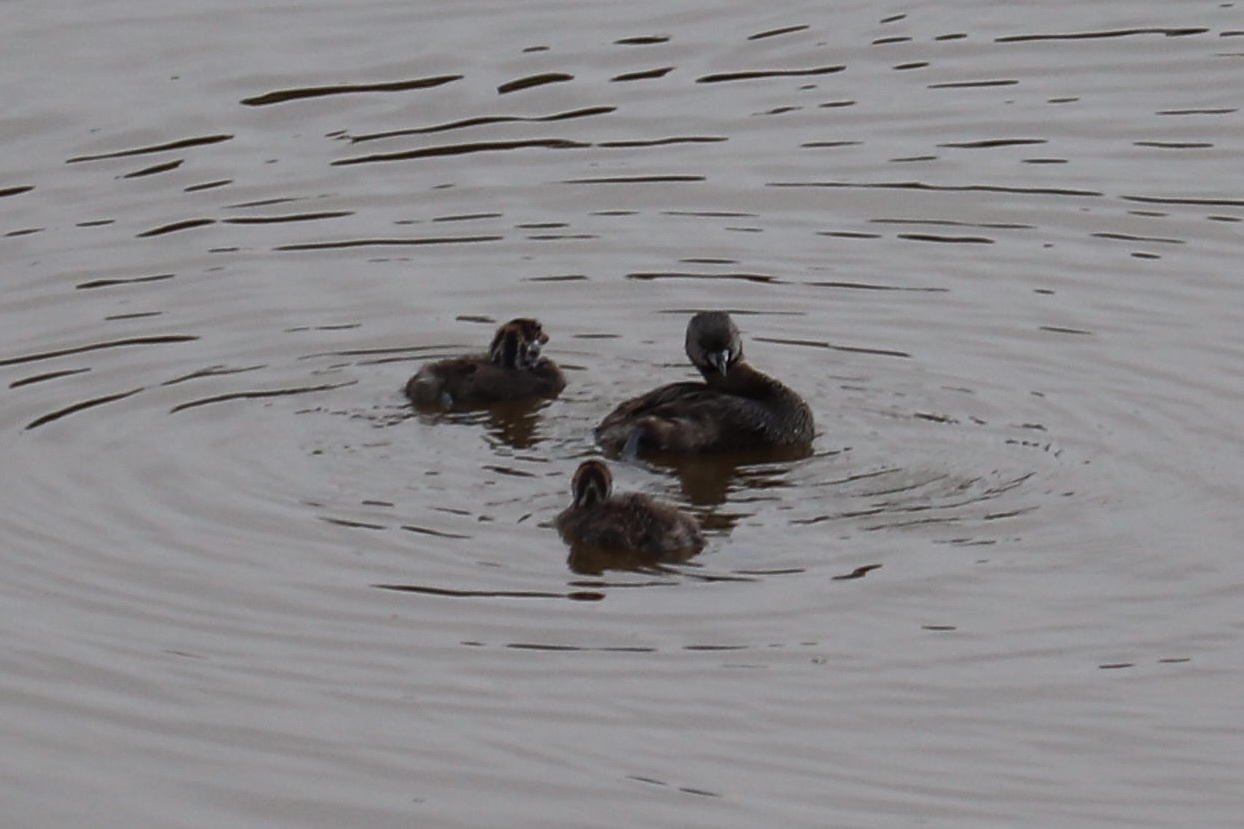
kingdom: Animalia
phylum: Chordata
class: Aves
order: Podicipediformes
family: Podicipedidae
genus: Podilymbus
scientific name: Podilymbus podiceps
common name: Pied-billed grebe
